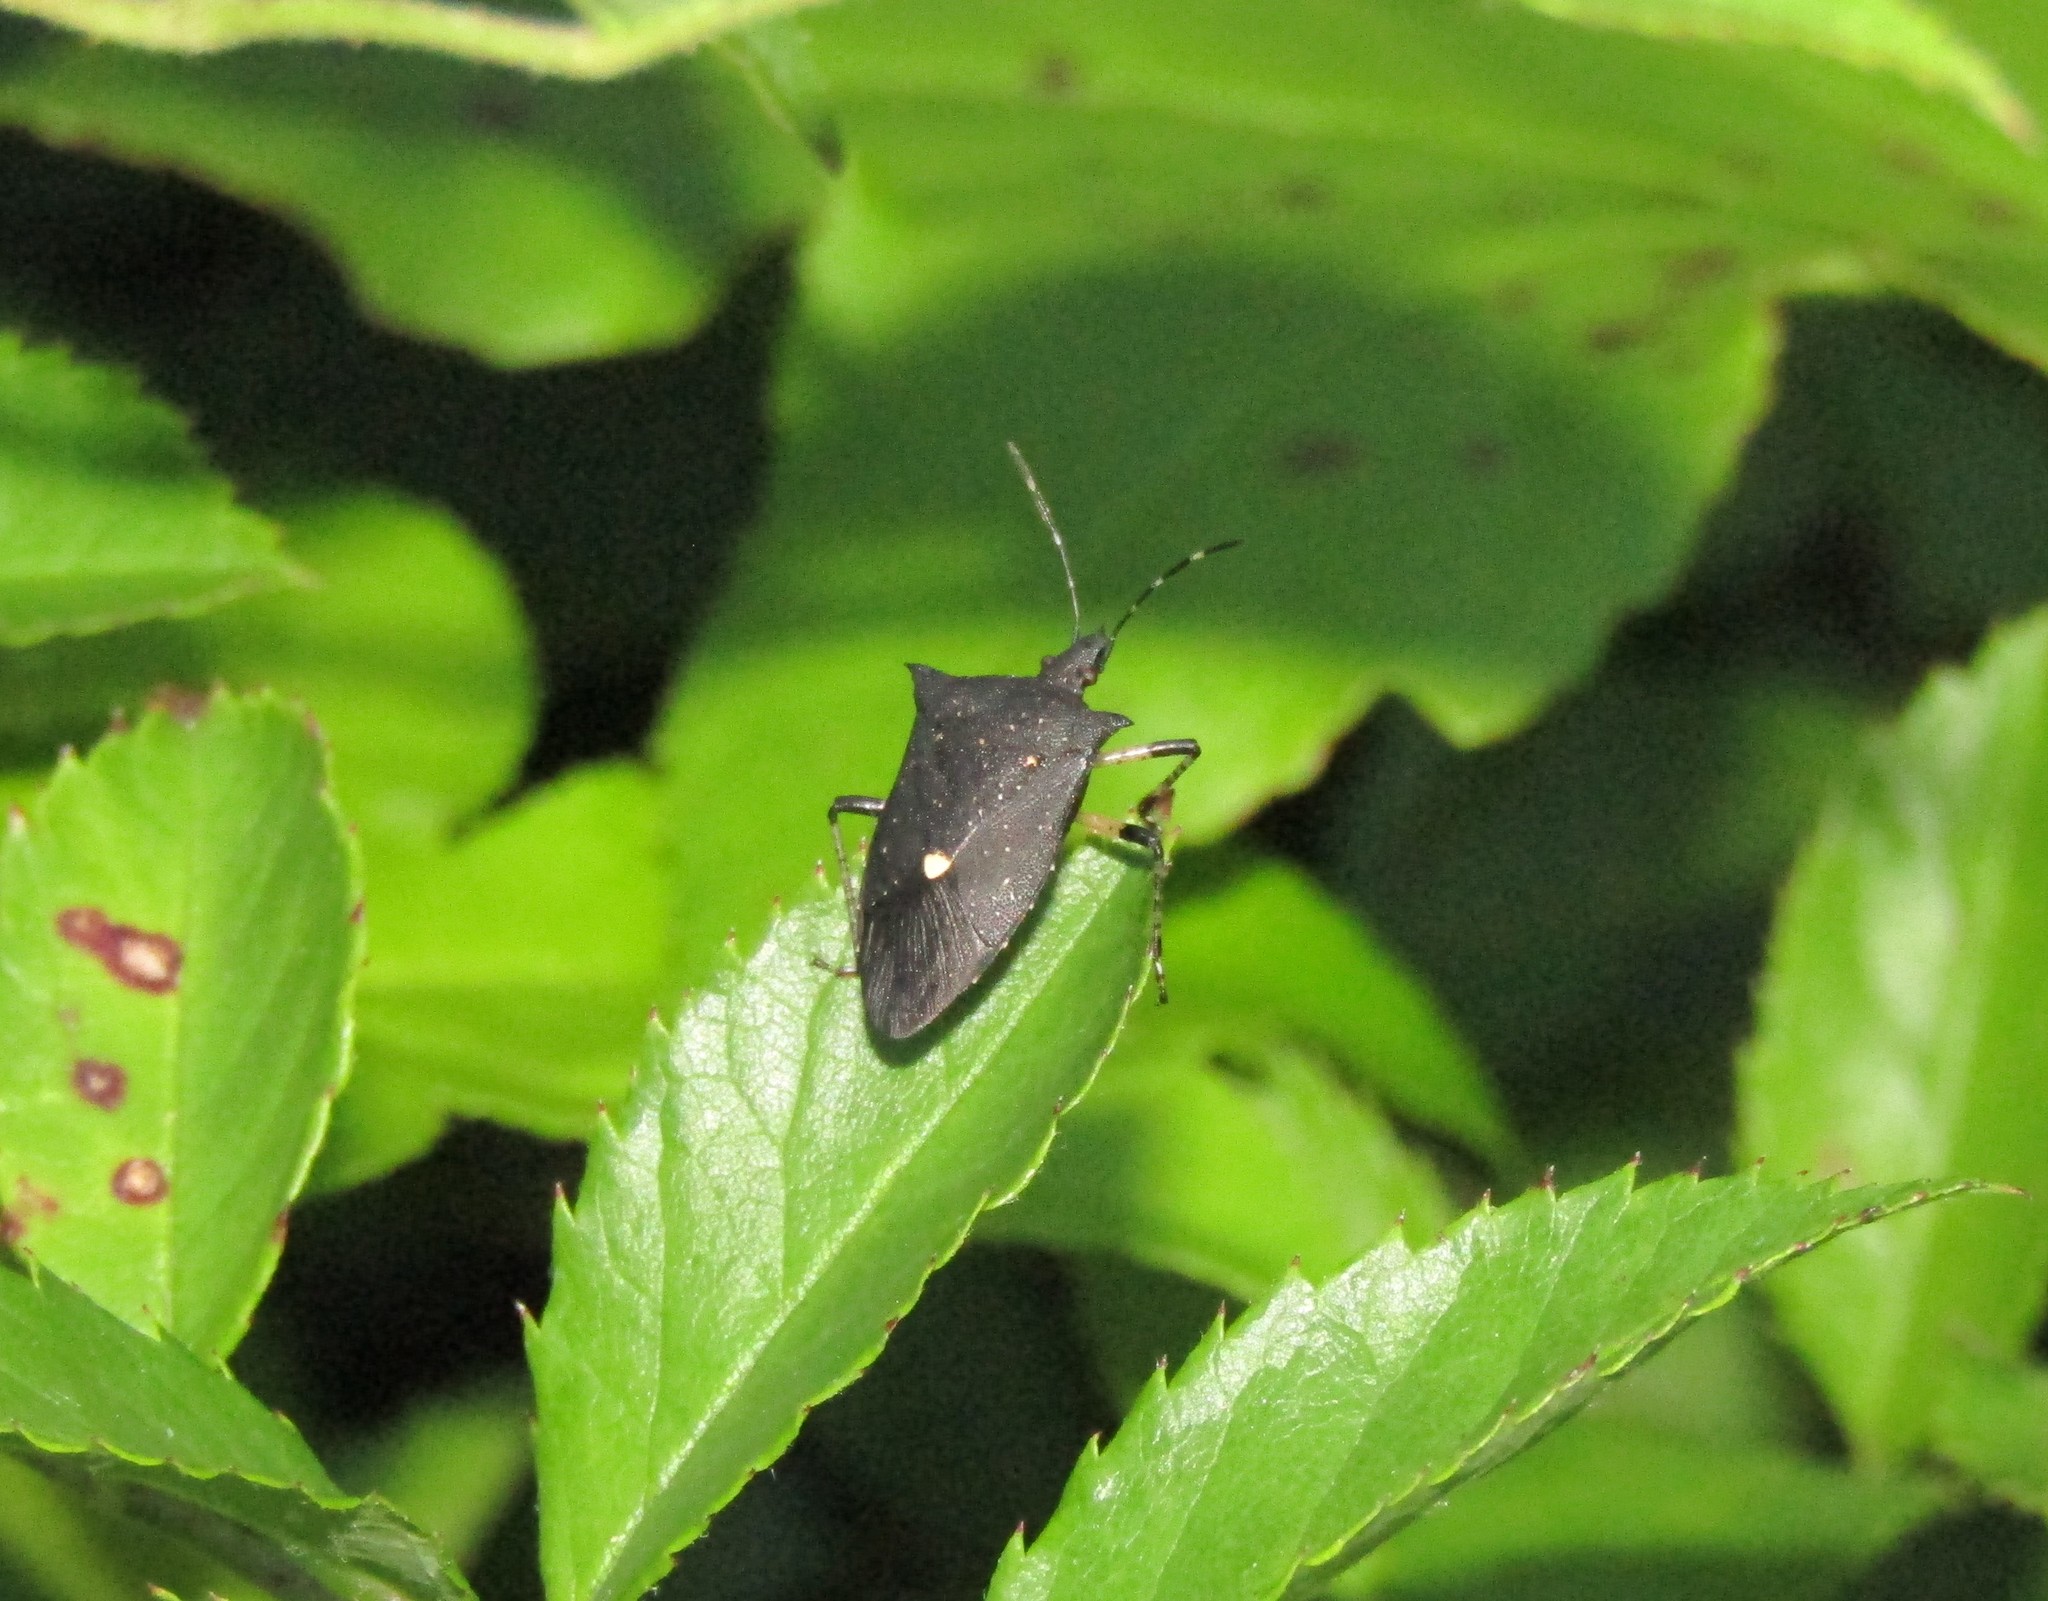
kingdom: Animalia
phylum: Arthropoda
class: Insecta
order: Hemiptera
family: Pentatomidae
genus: Proxys
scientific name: Proxys punctulatus
